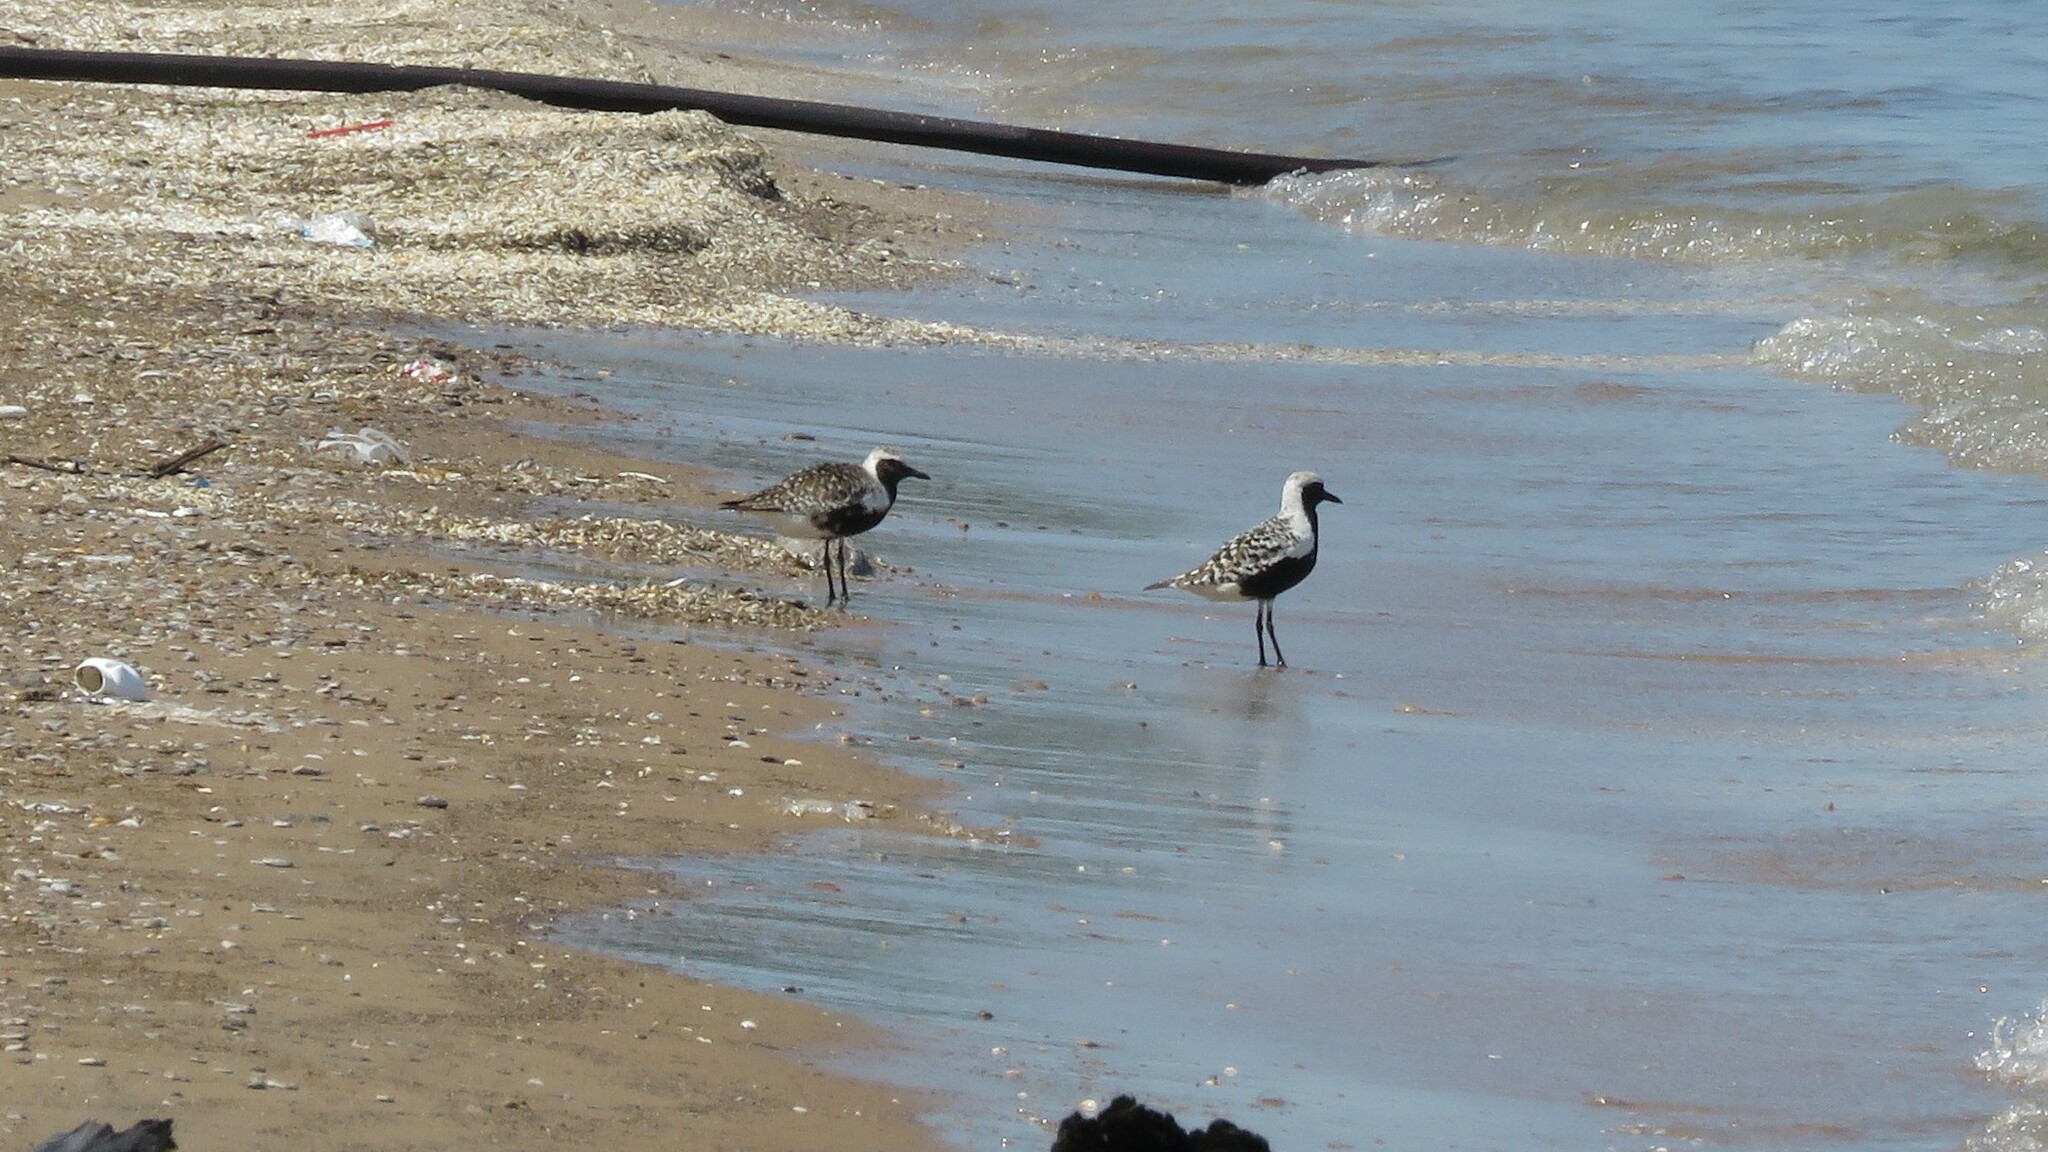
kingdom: Animalia
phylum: Chordata
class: Aves
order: Charadriiformes
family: Charadriidae
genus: Pluvialis
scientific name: Pluvialis squatarola
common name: Grey plover
